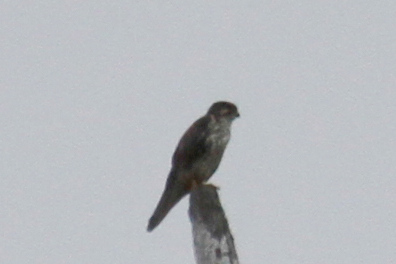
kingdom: Animalia
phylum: Chordata
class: Aves
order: Falconiformes
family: Falconidae
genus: Falco
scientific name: Falco mexicanus
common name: Prairie falcon
